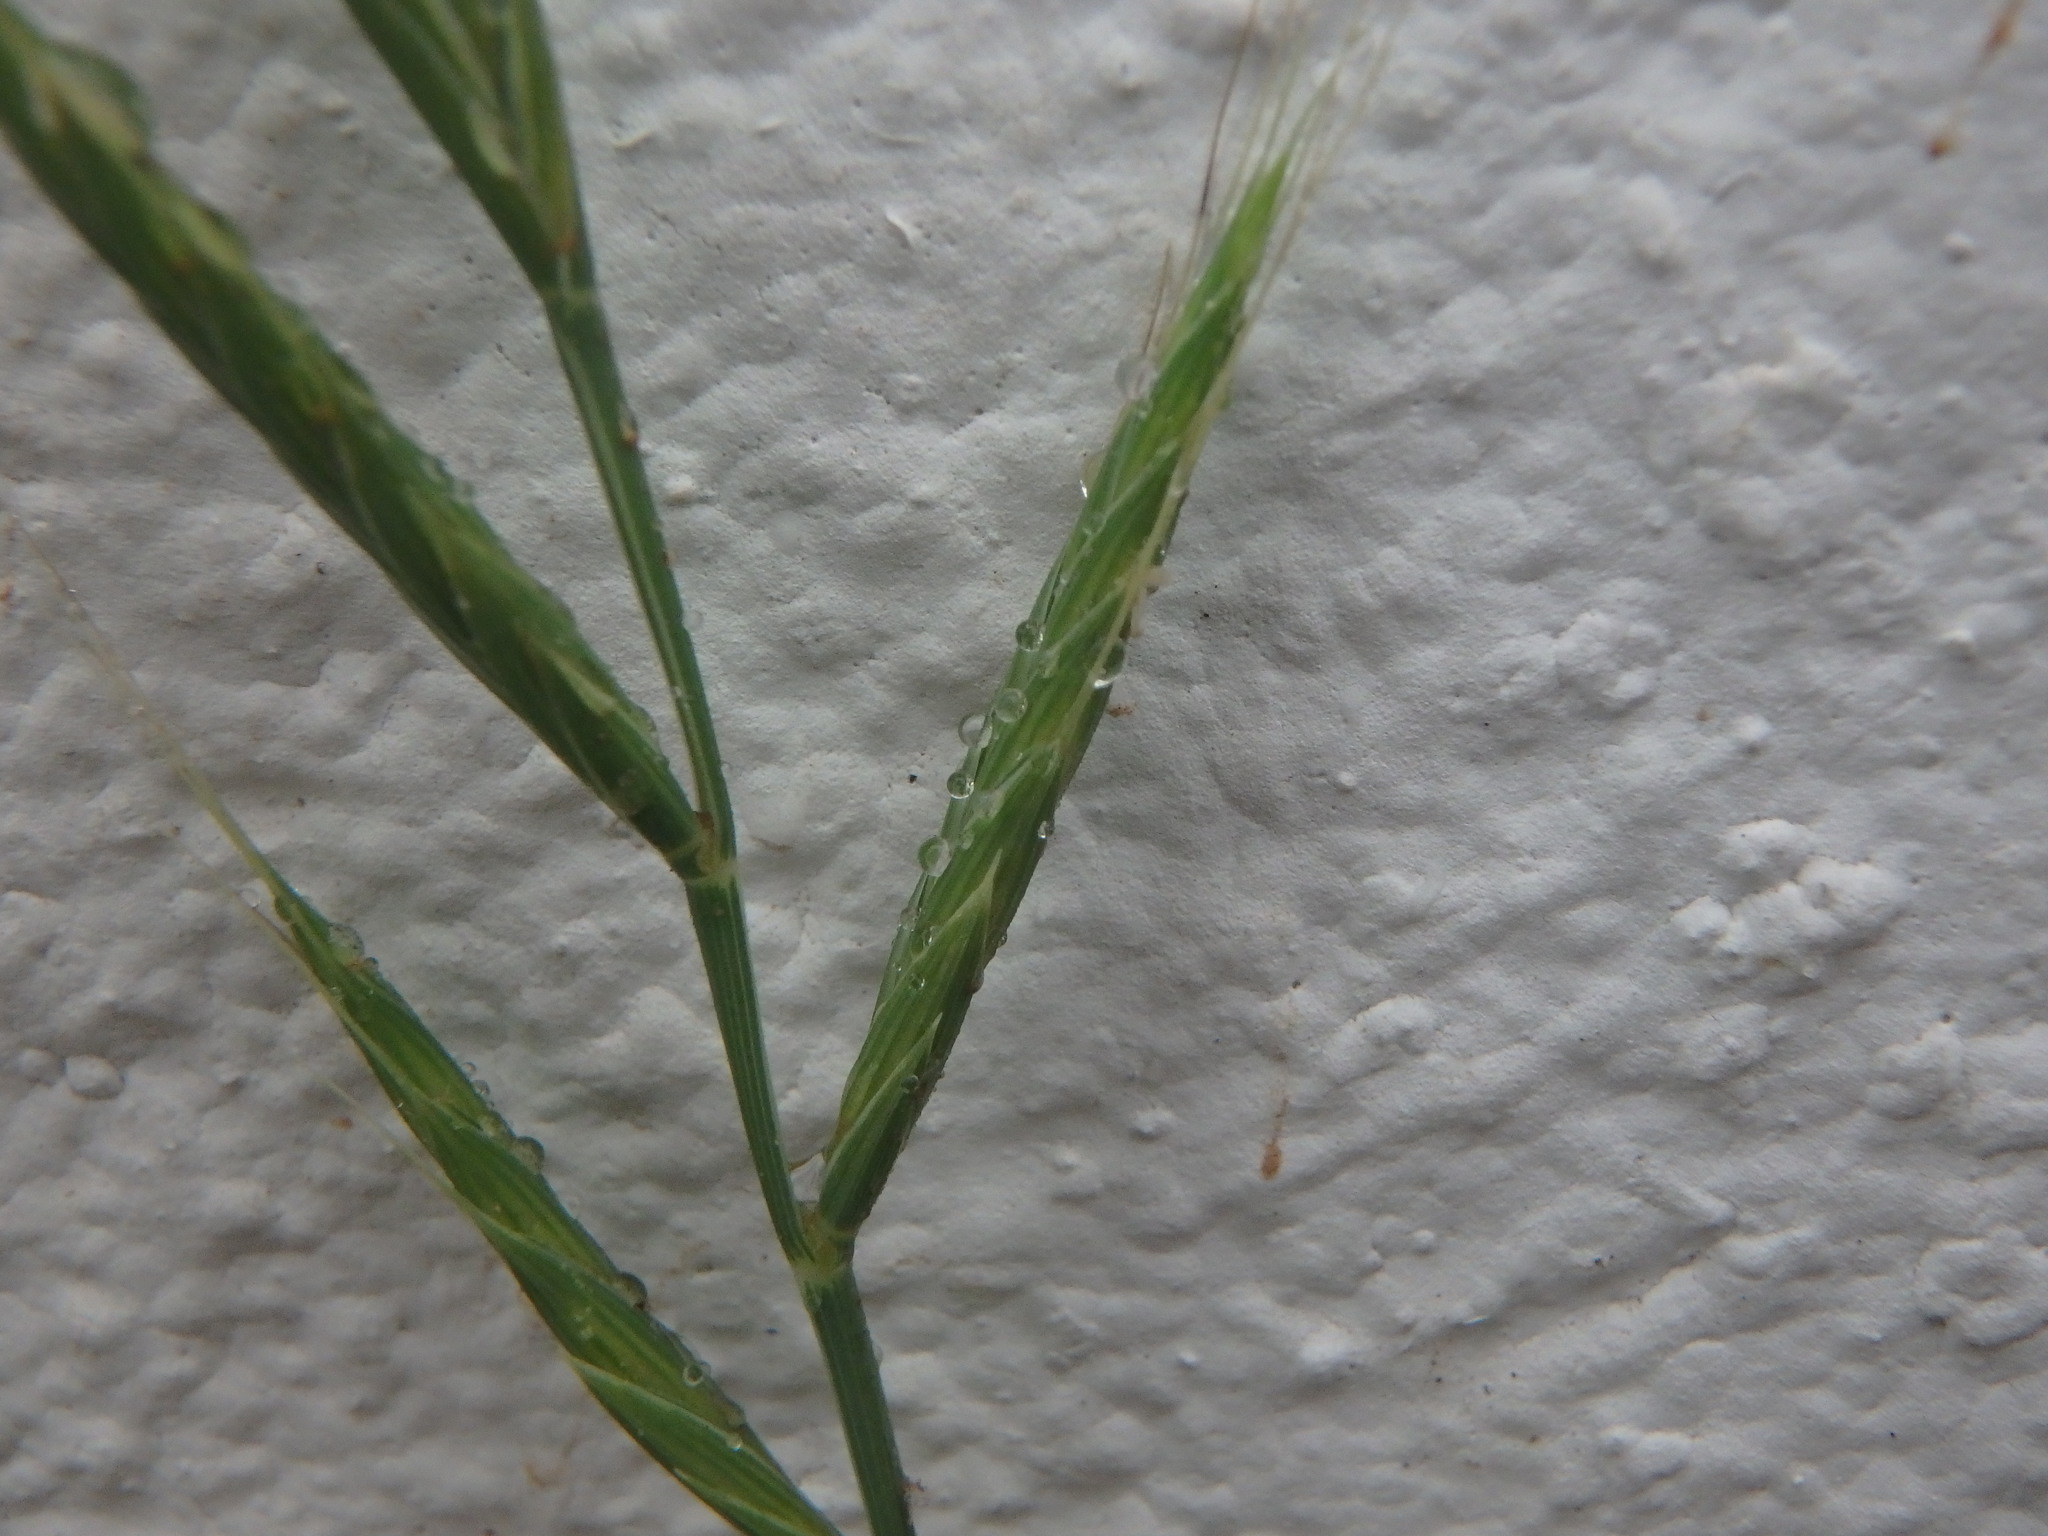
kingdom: Plantae
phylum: Tracheophyta
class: Liliopsida
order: Poales
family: Poaceae
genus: Brachypodium
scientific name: Brachypodium distachyon
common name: Stiff brome
